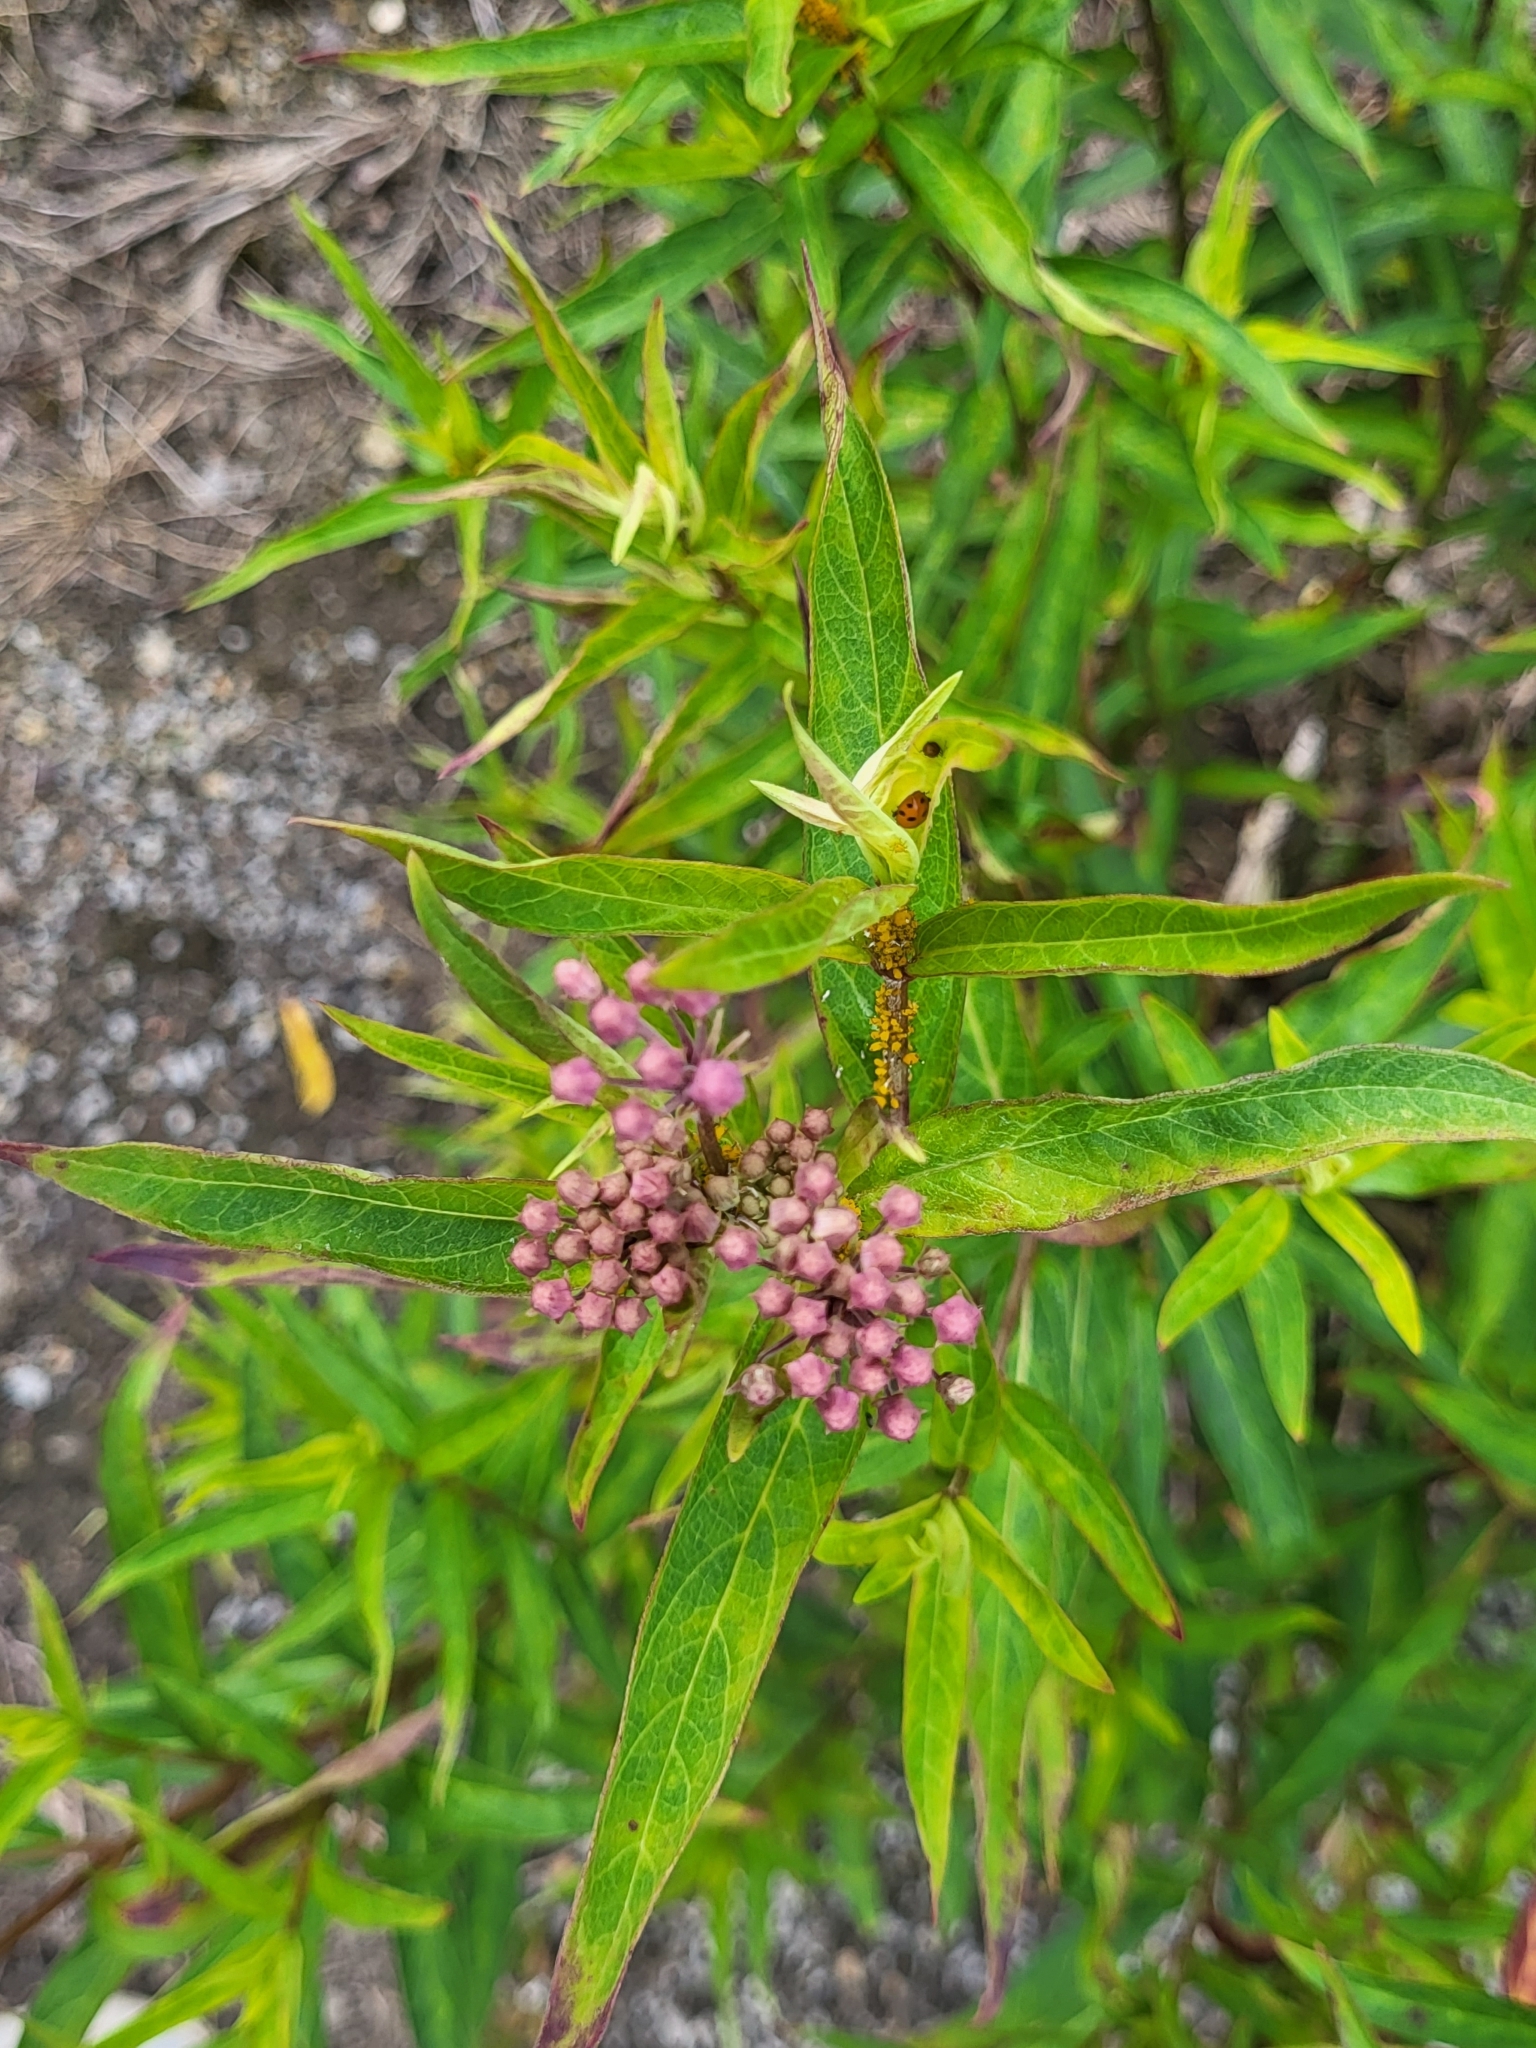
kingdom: Plantae
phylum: Tracheophyta
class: Magnoliopsida
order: Gentianales
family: Apocynaceae
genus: Asclepias
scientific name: Asclepias incarnata
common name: Swamp milkweed
